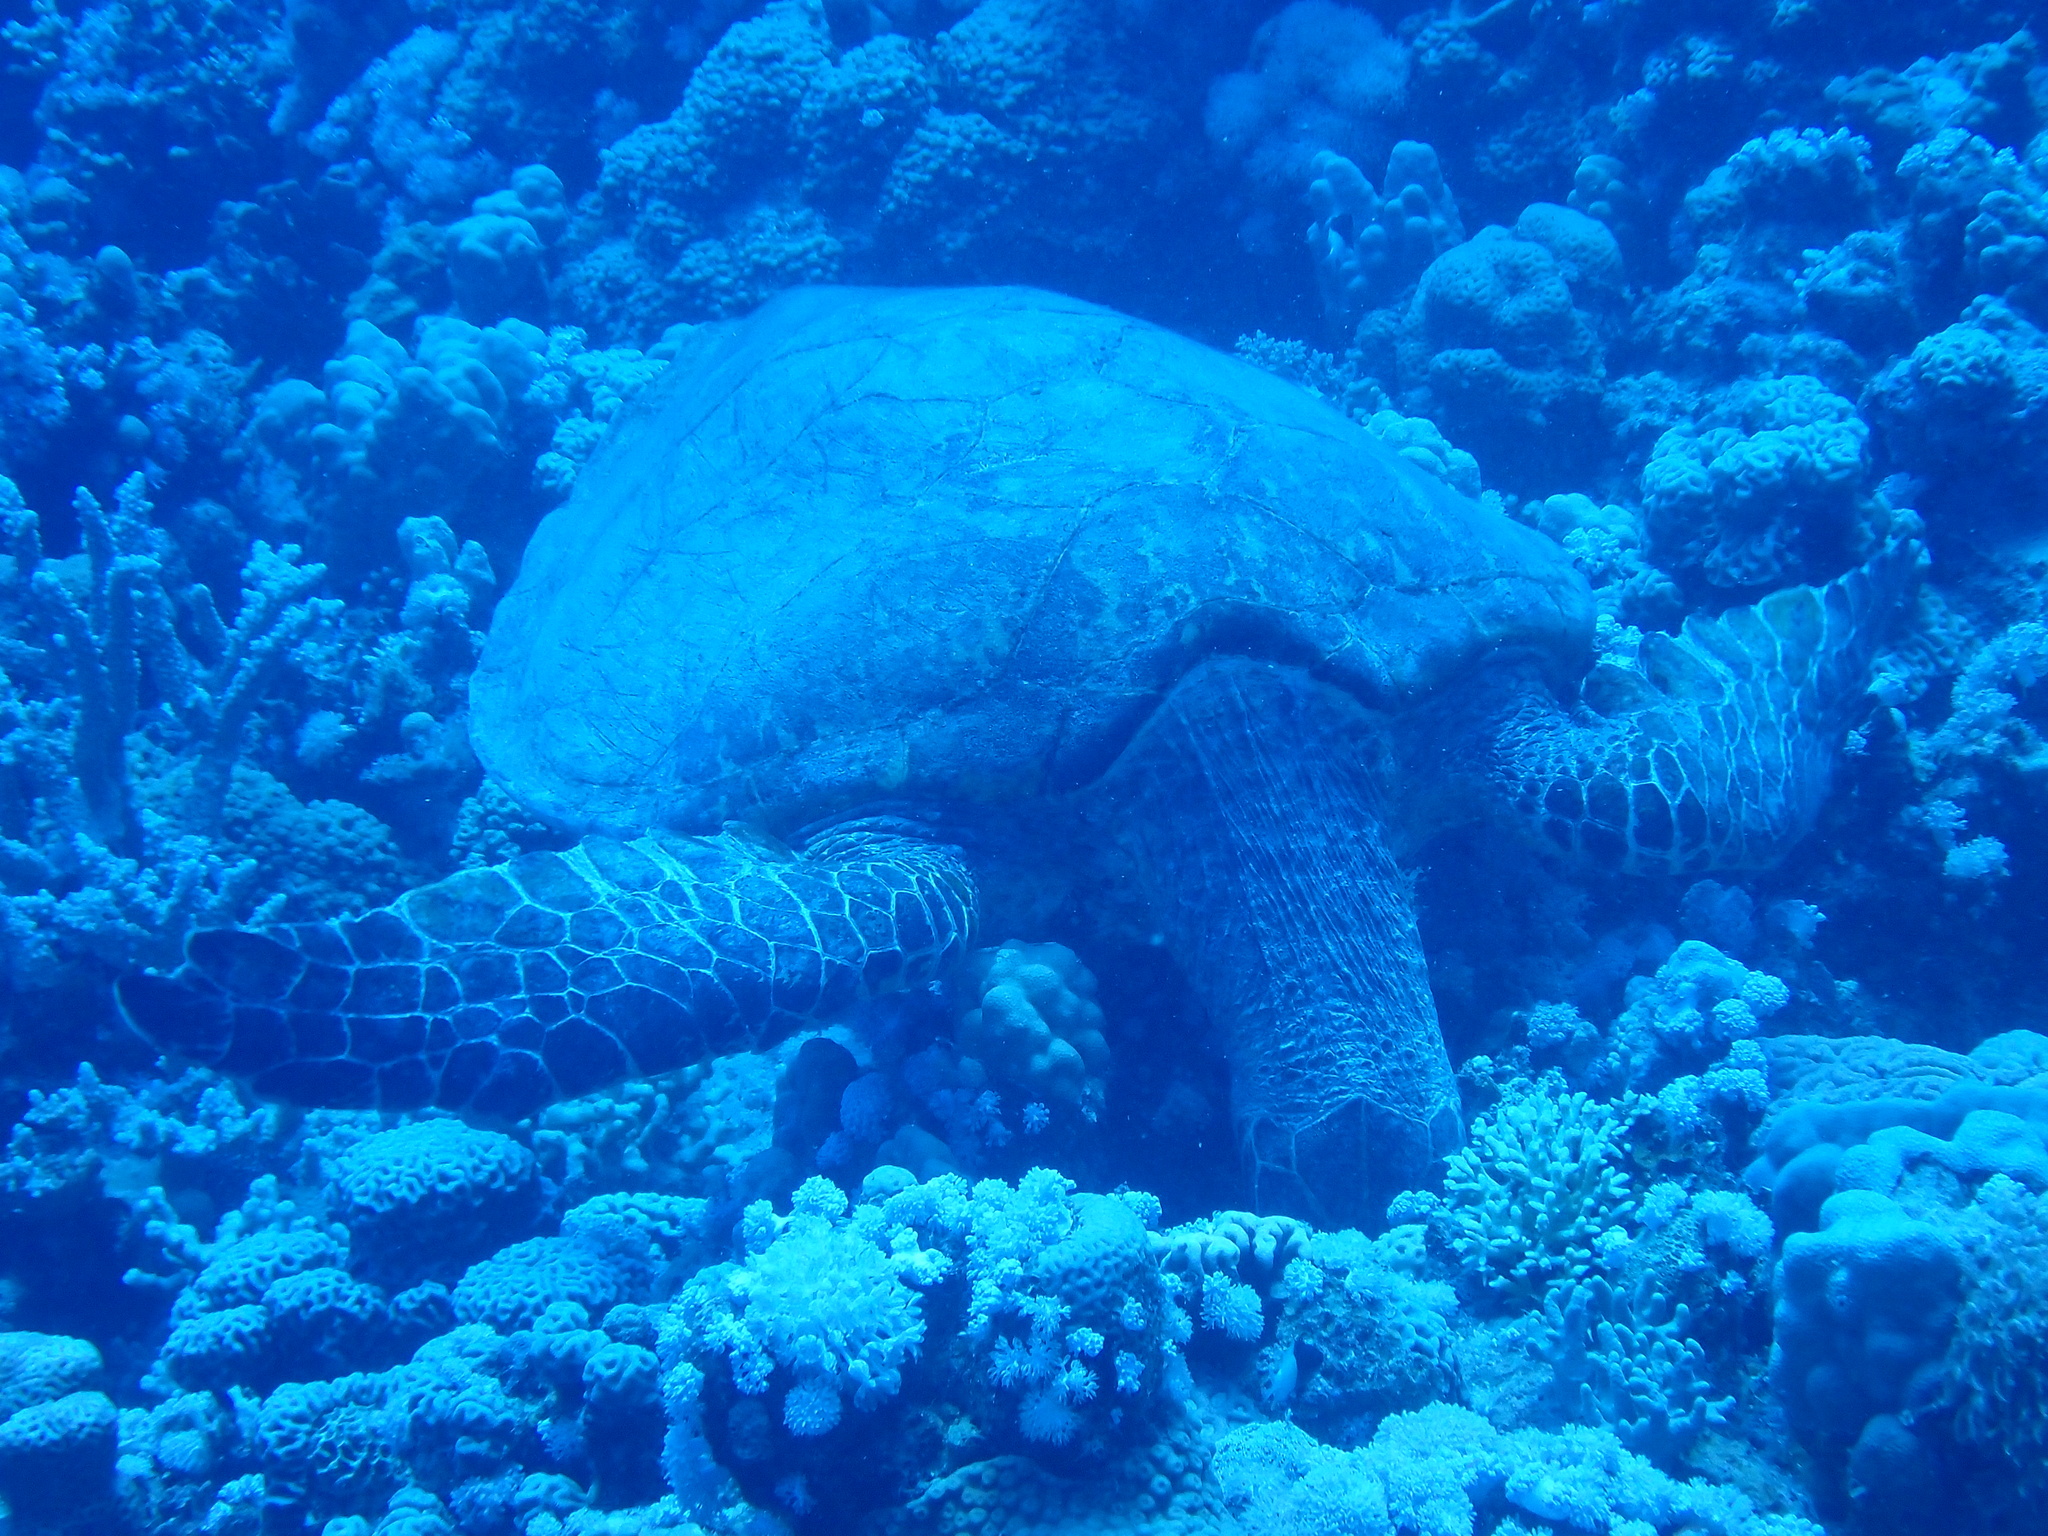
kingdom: Animalia
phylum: Chordata
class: Testudines
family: Cheloniidae
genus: Eretmochelys
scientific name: Eretmochelys imbricata
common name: Hawksbill turtle
